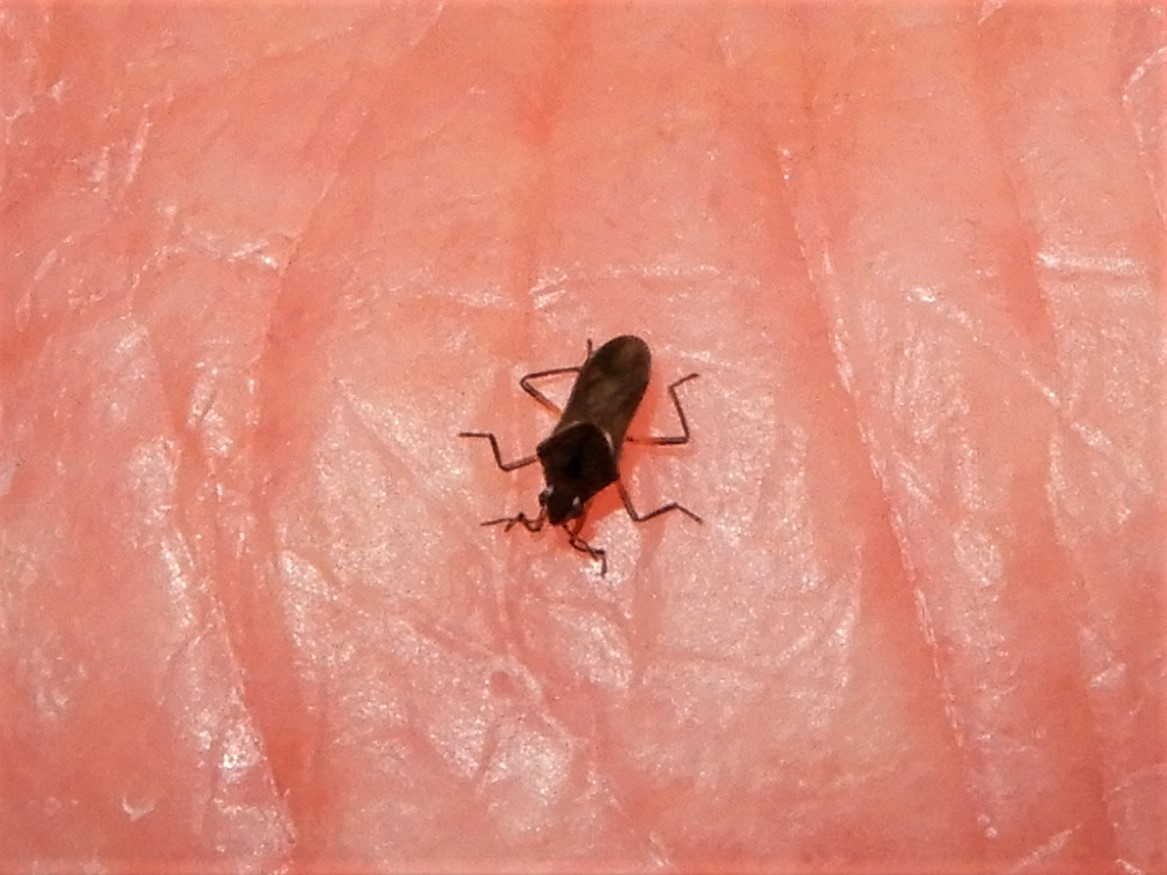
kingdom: Animalia
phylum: Arthropoda
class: Insecta
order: Hemiptera
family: Veliidae
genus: Microvelia
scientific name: Microvelia macgregori
